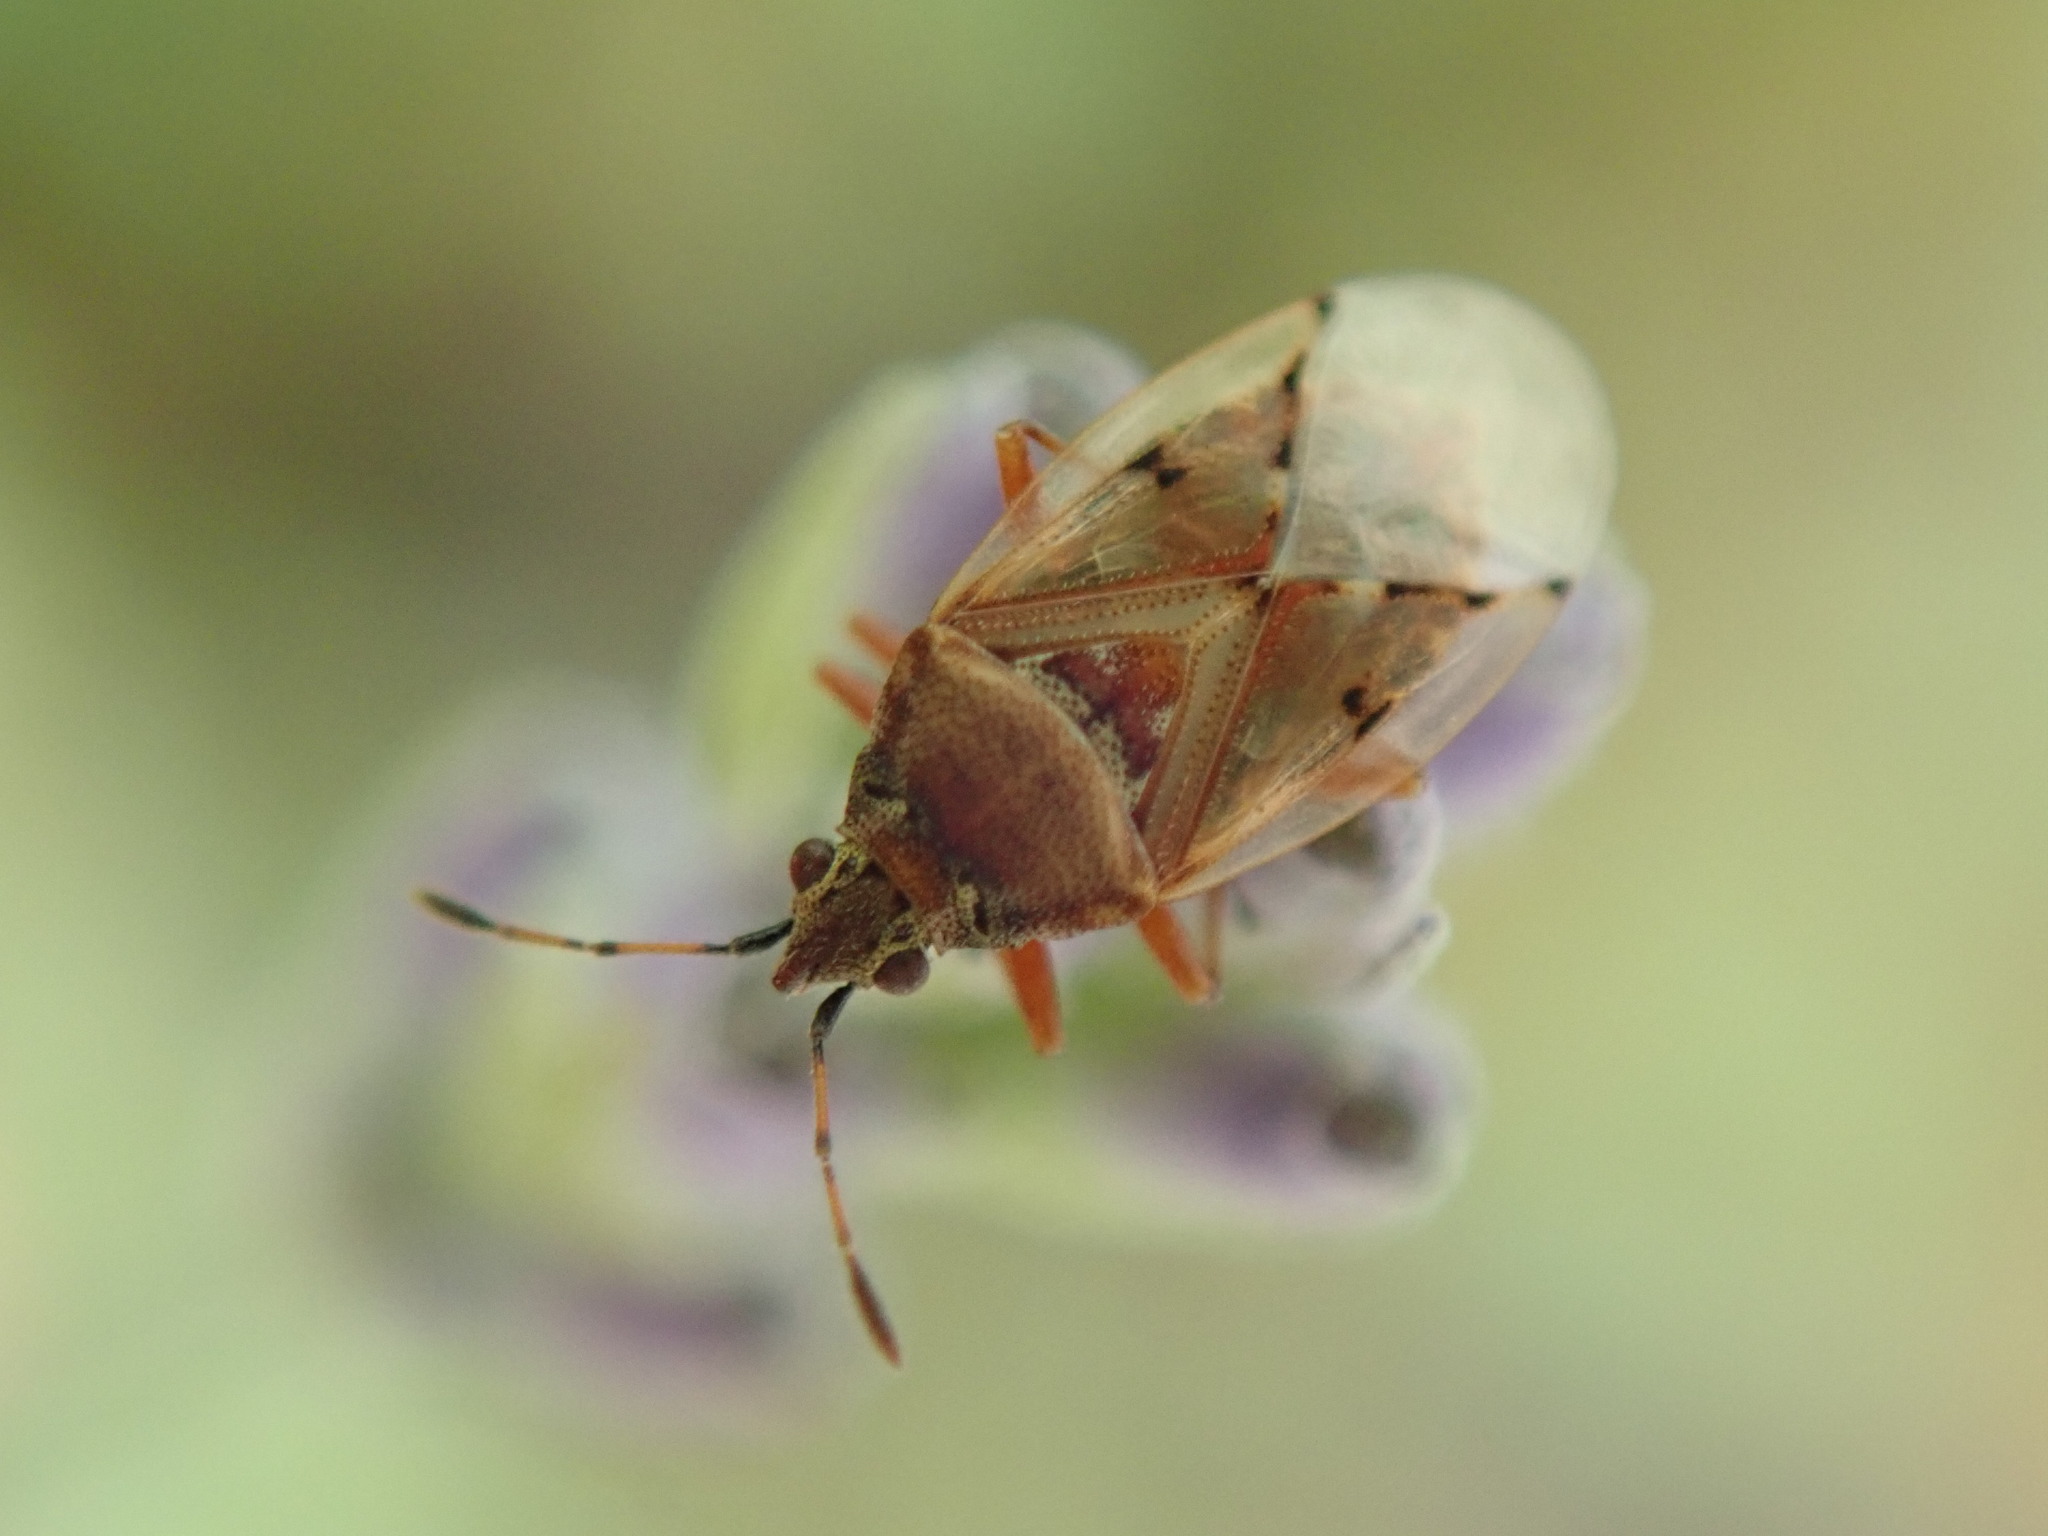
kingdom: Animalia
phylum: Arthropoda
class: Insecta
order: Hemiptera
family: Lygaeidae
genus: Kleidocerys
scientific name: Kleidocerys resedae
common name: Birch catkin bug
